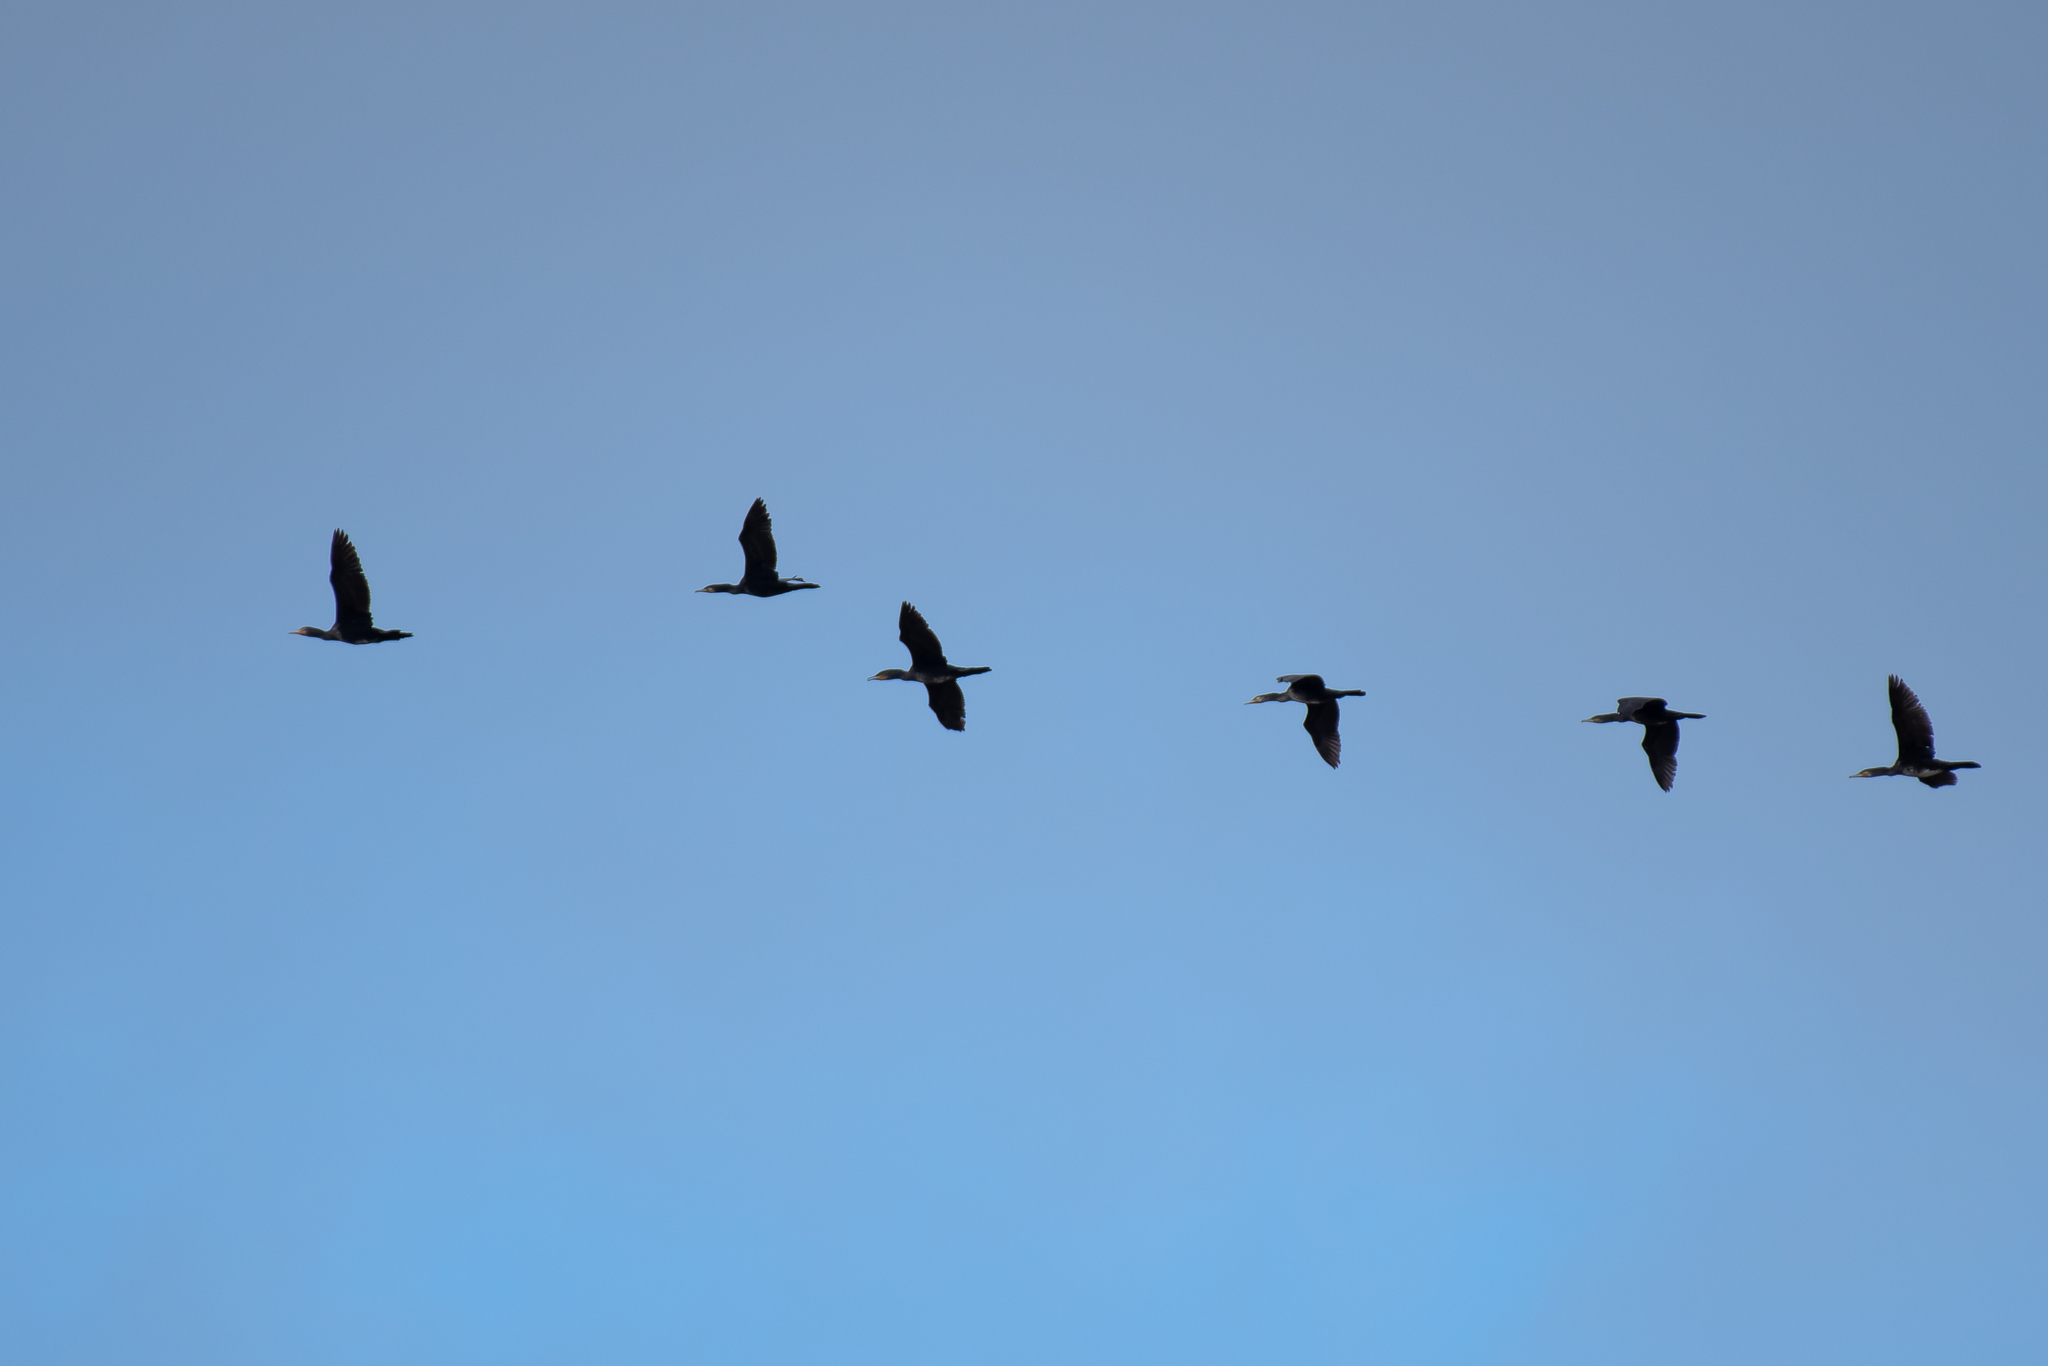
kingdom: Animalia
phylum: Chordata
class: Aves
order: Suliformes
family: Phalacrocoracidae
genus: Phalacrocorax
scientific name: Phalacrocorax carbo
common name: Great cormorant
